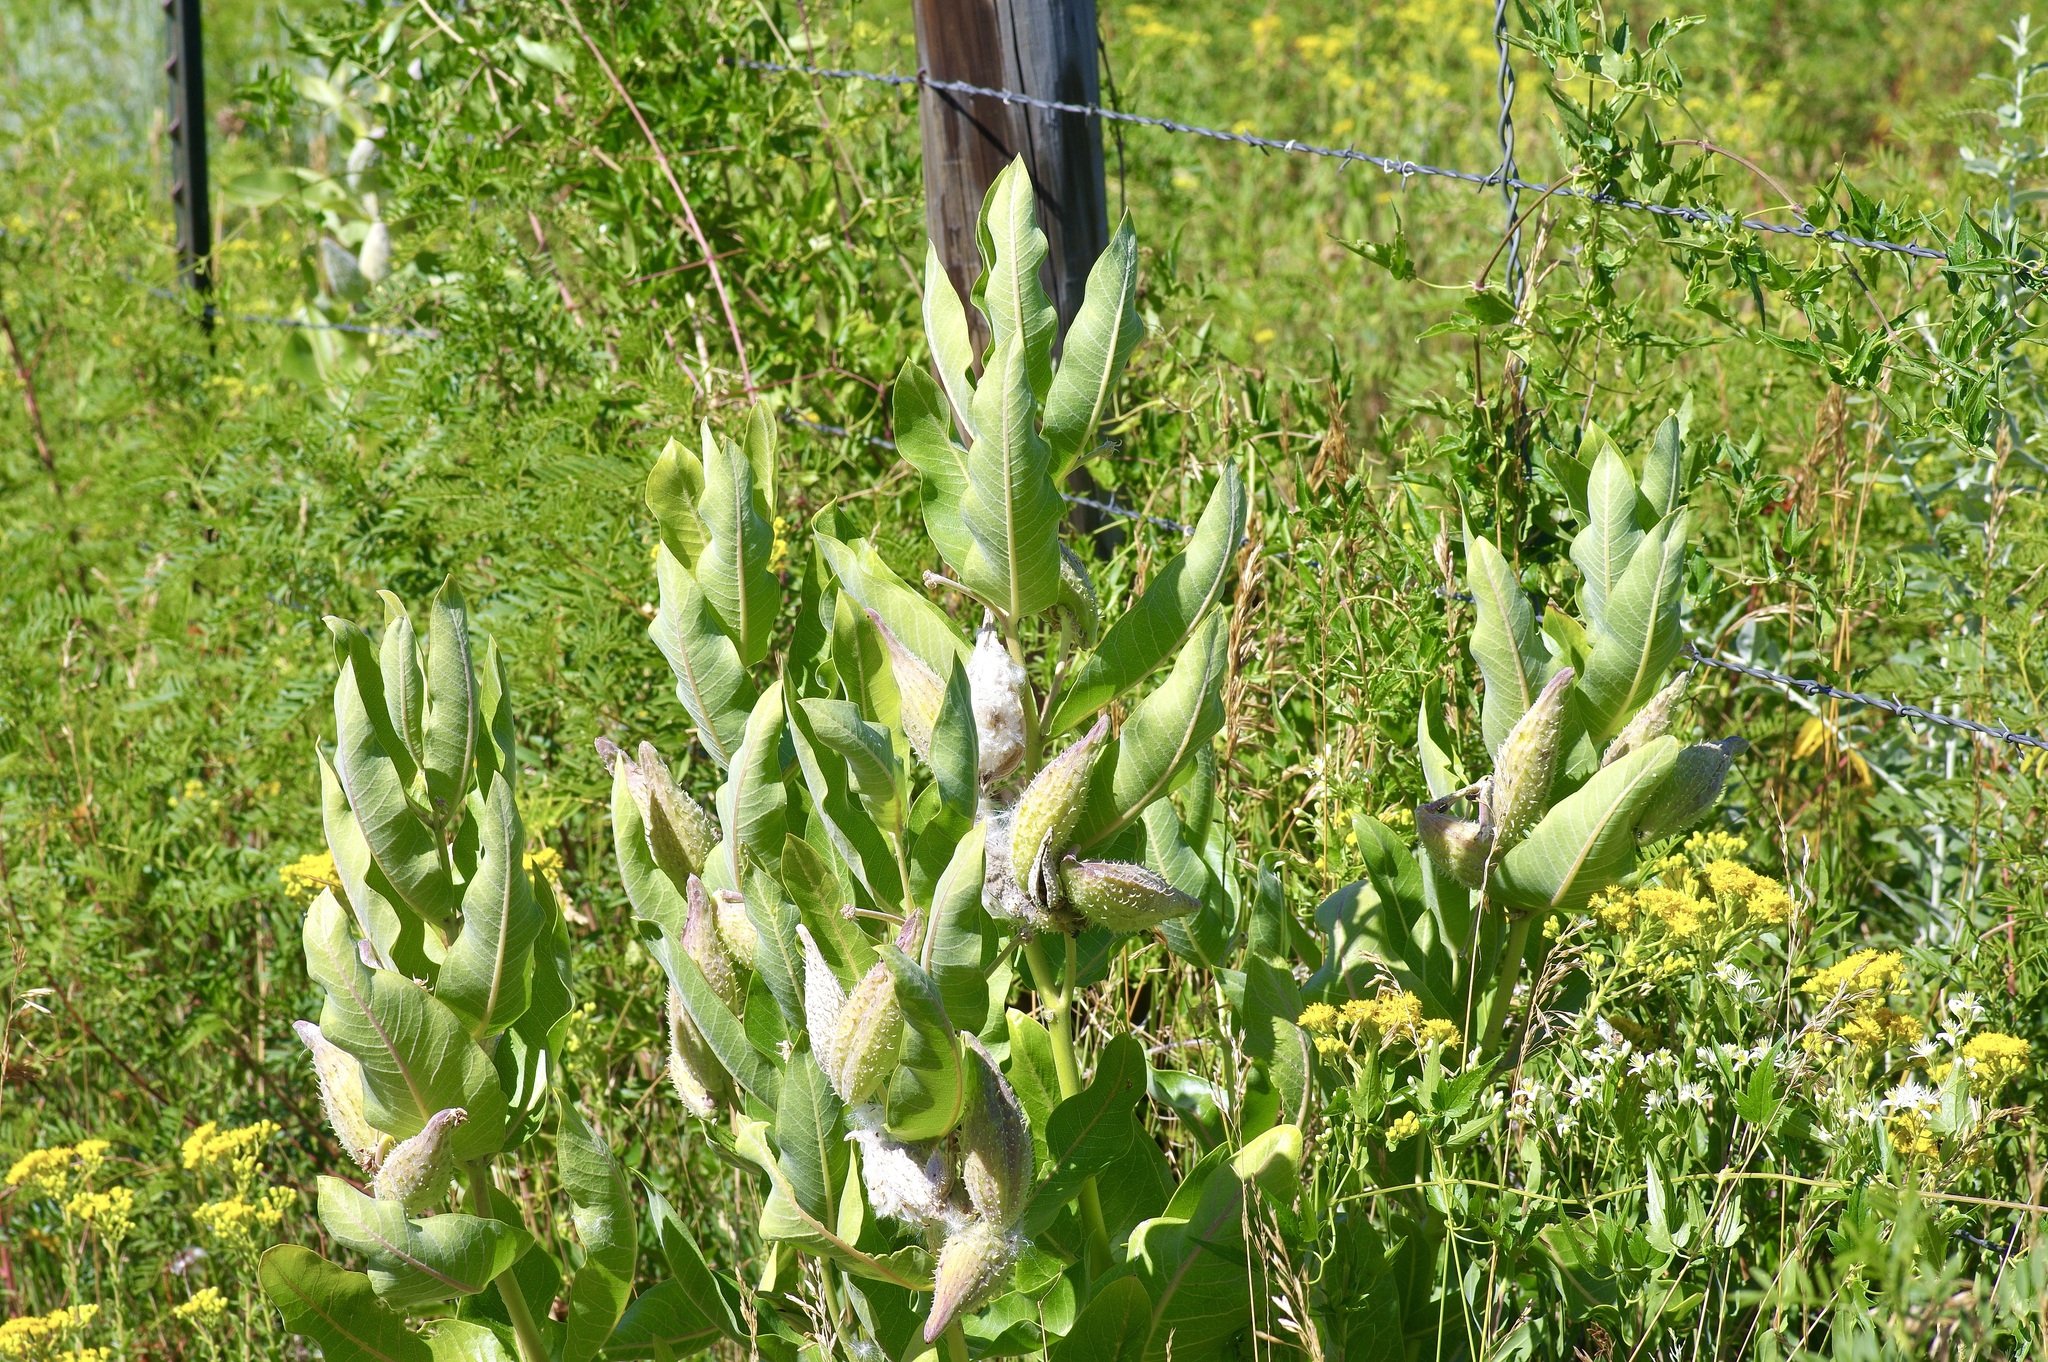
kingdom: Plantae
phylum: Tracheophyta
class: Magnoliopsida
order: Gentianales
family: Apocynaceae
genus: Asclepias
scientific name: Asclepias speciosa
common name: Showy milkweed
